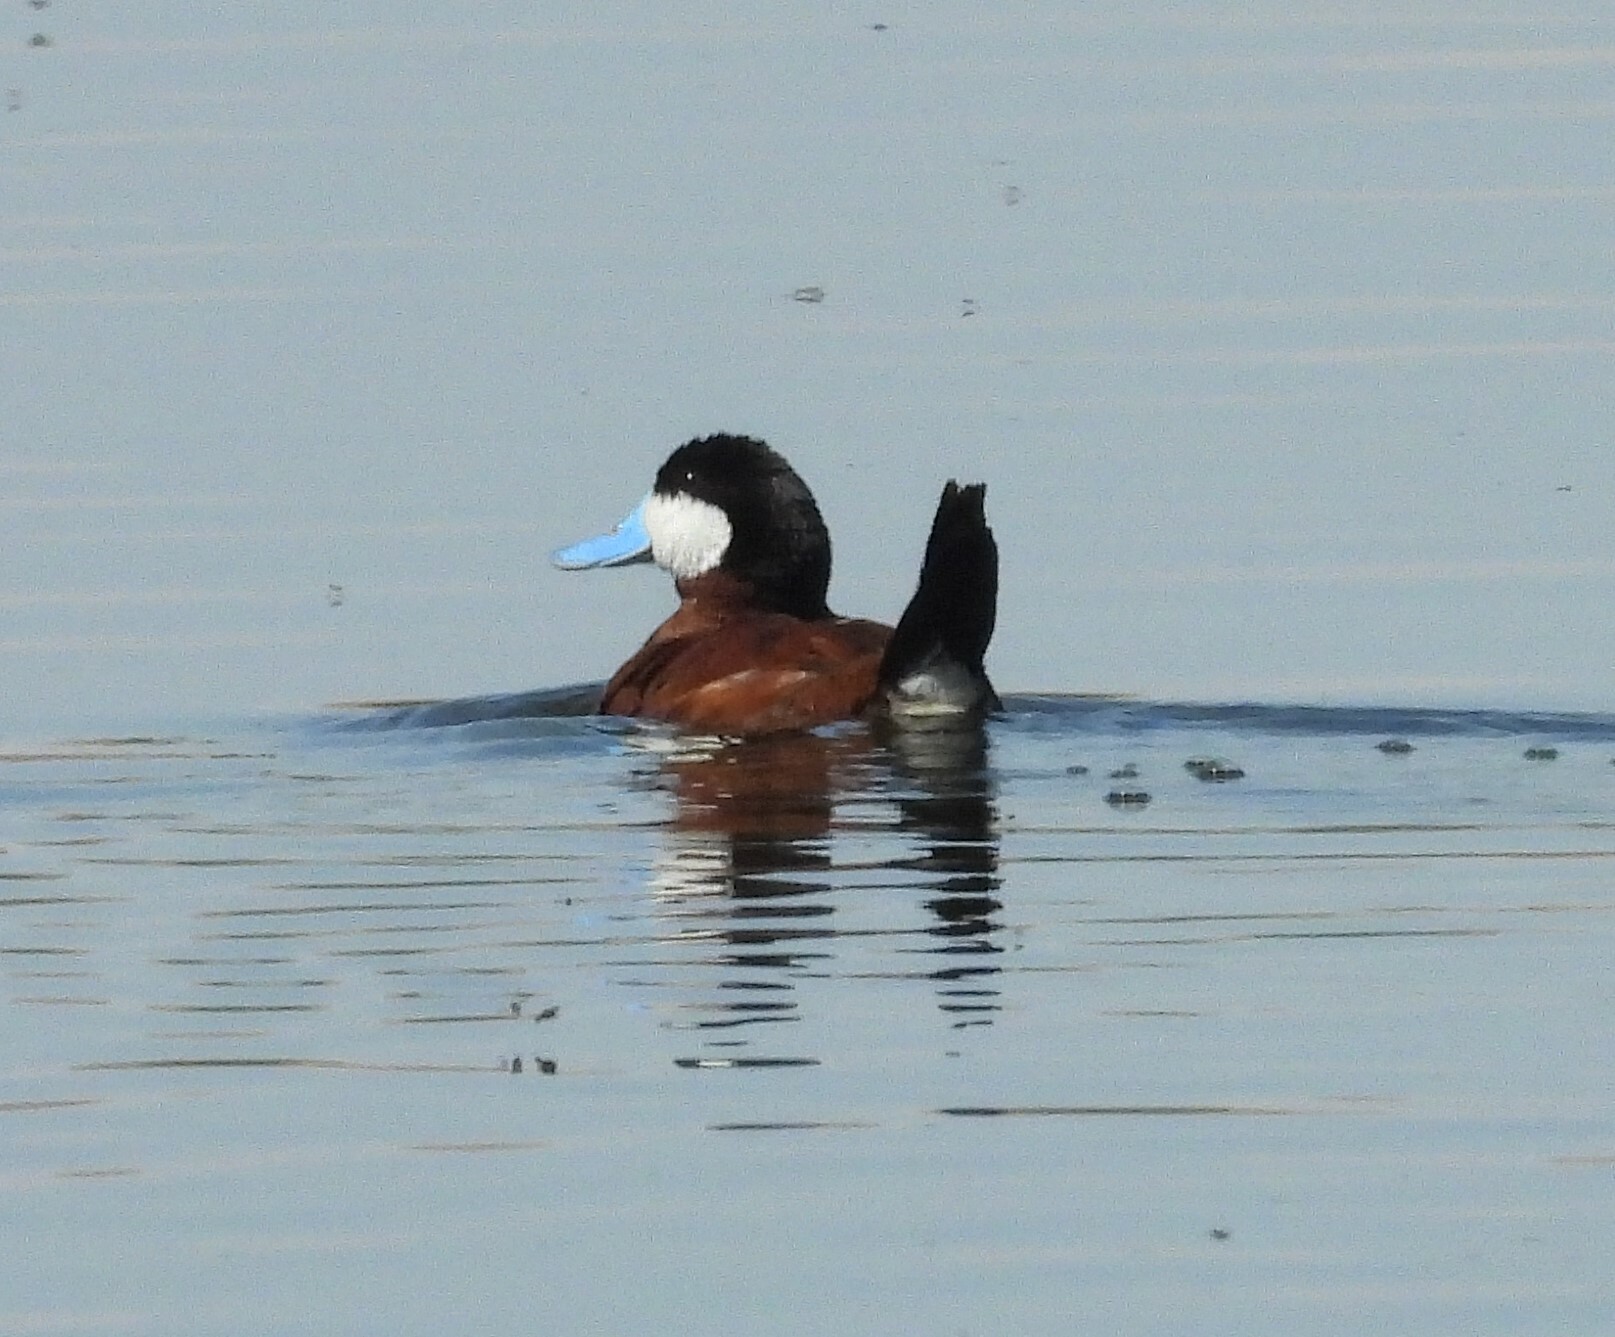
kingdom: Animalia
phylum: Chordata
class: Aves
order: Anseriformes
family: Anatidae
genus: Oxyura
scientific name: Oxyura jamaicensis
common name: Ruddy duck
